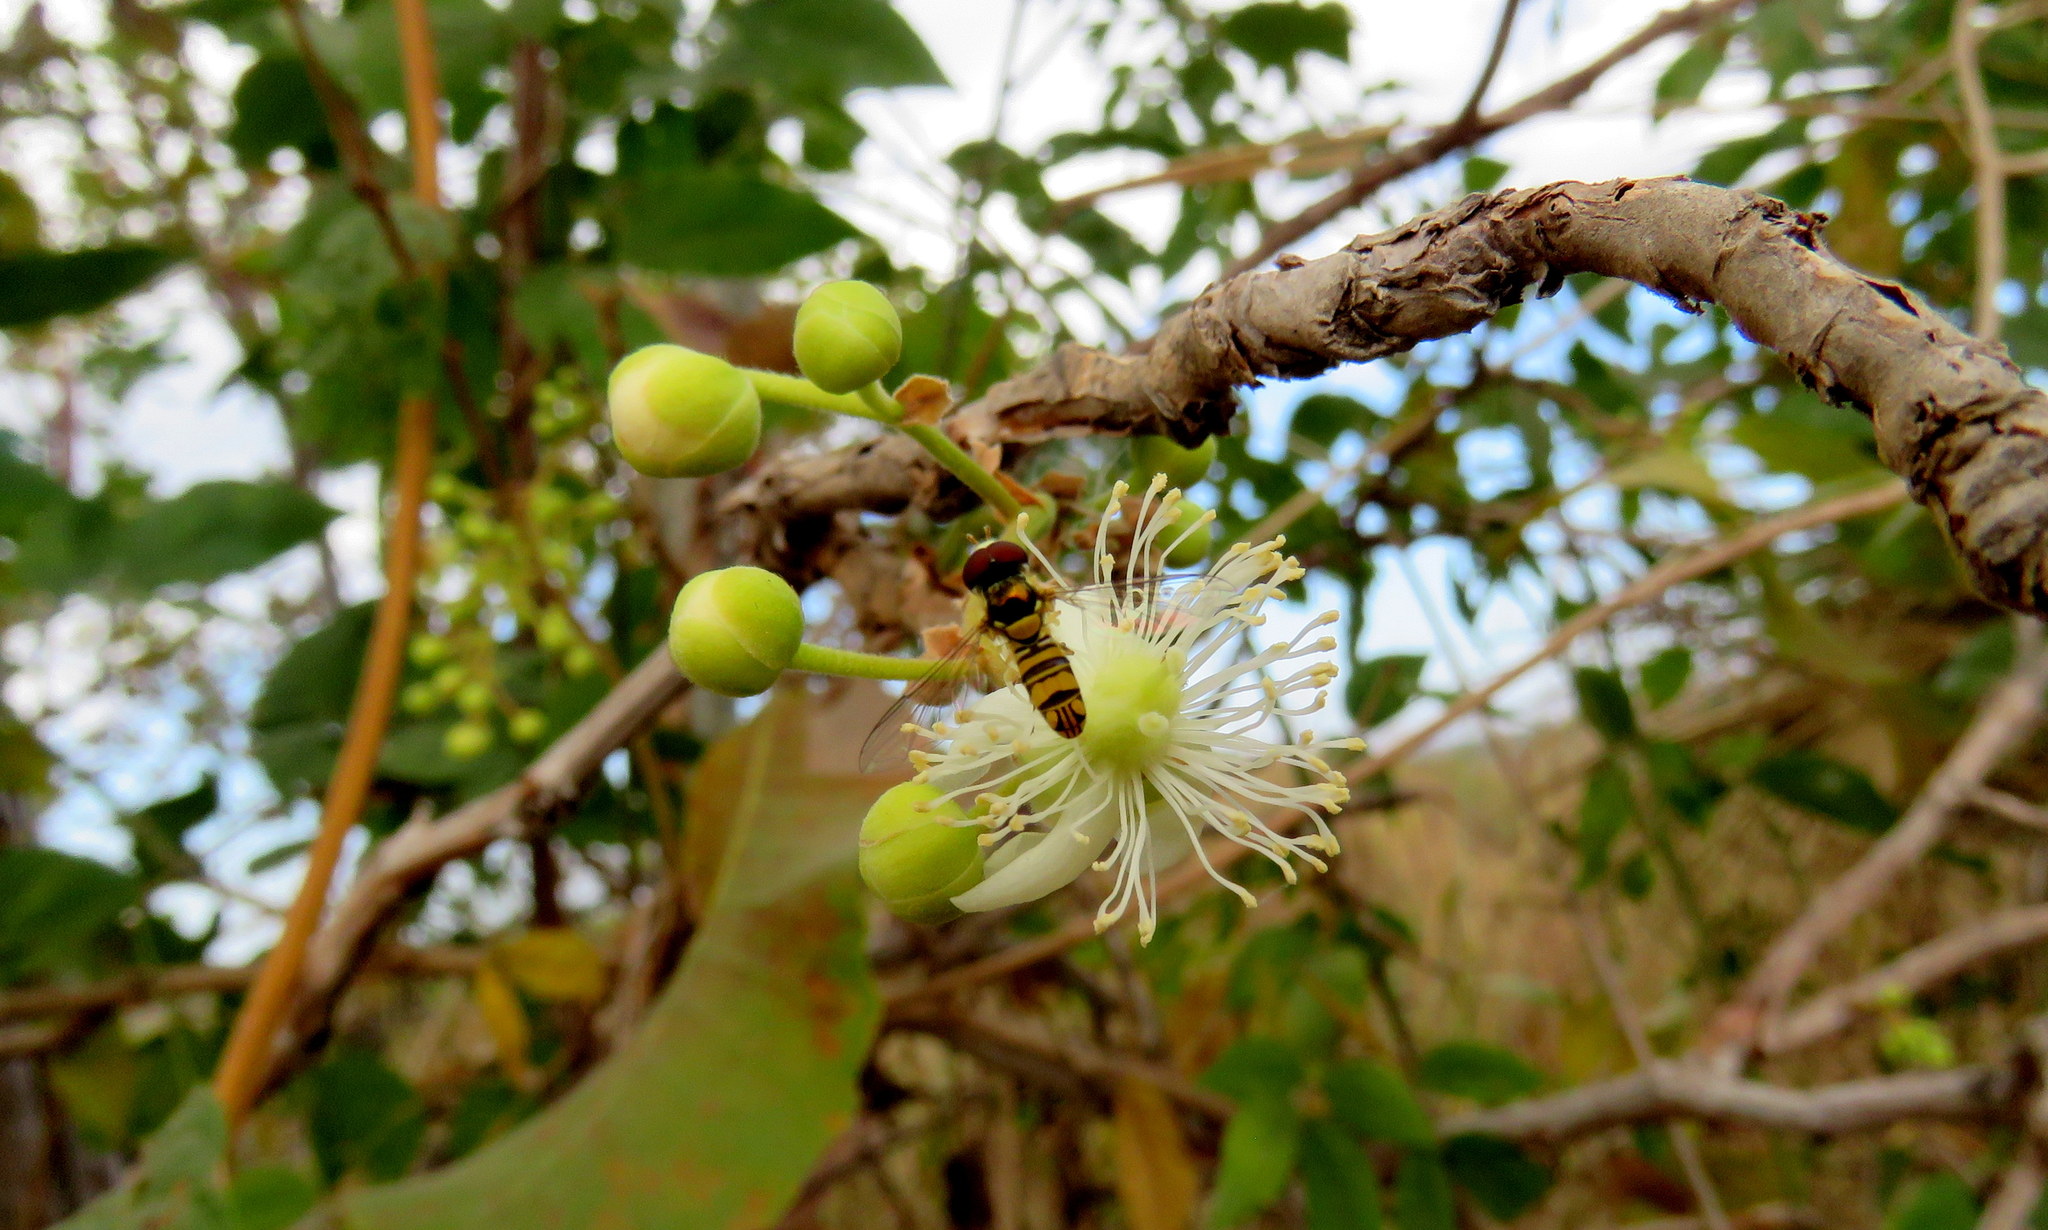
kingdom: Plantae
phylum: Tracheophyta
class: Magnoliopsida
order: Dilleniales
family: Dilleniaceae
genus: Curatella
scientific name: Curatella americana
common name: Sandpaper tree
